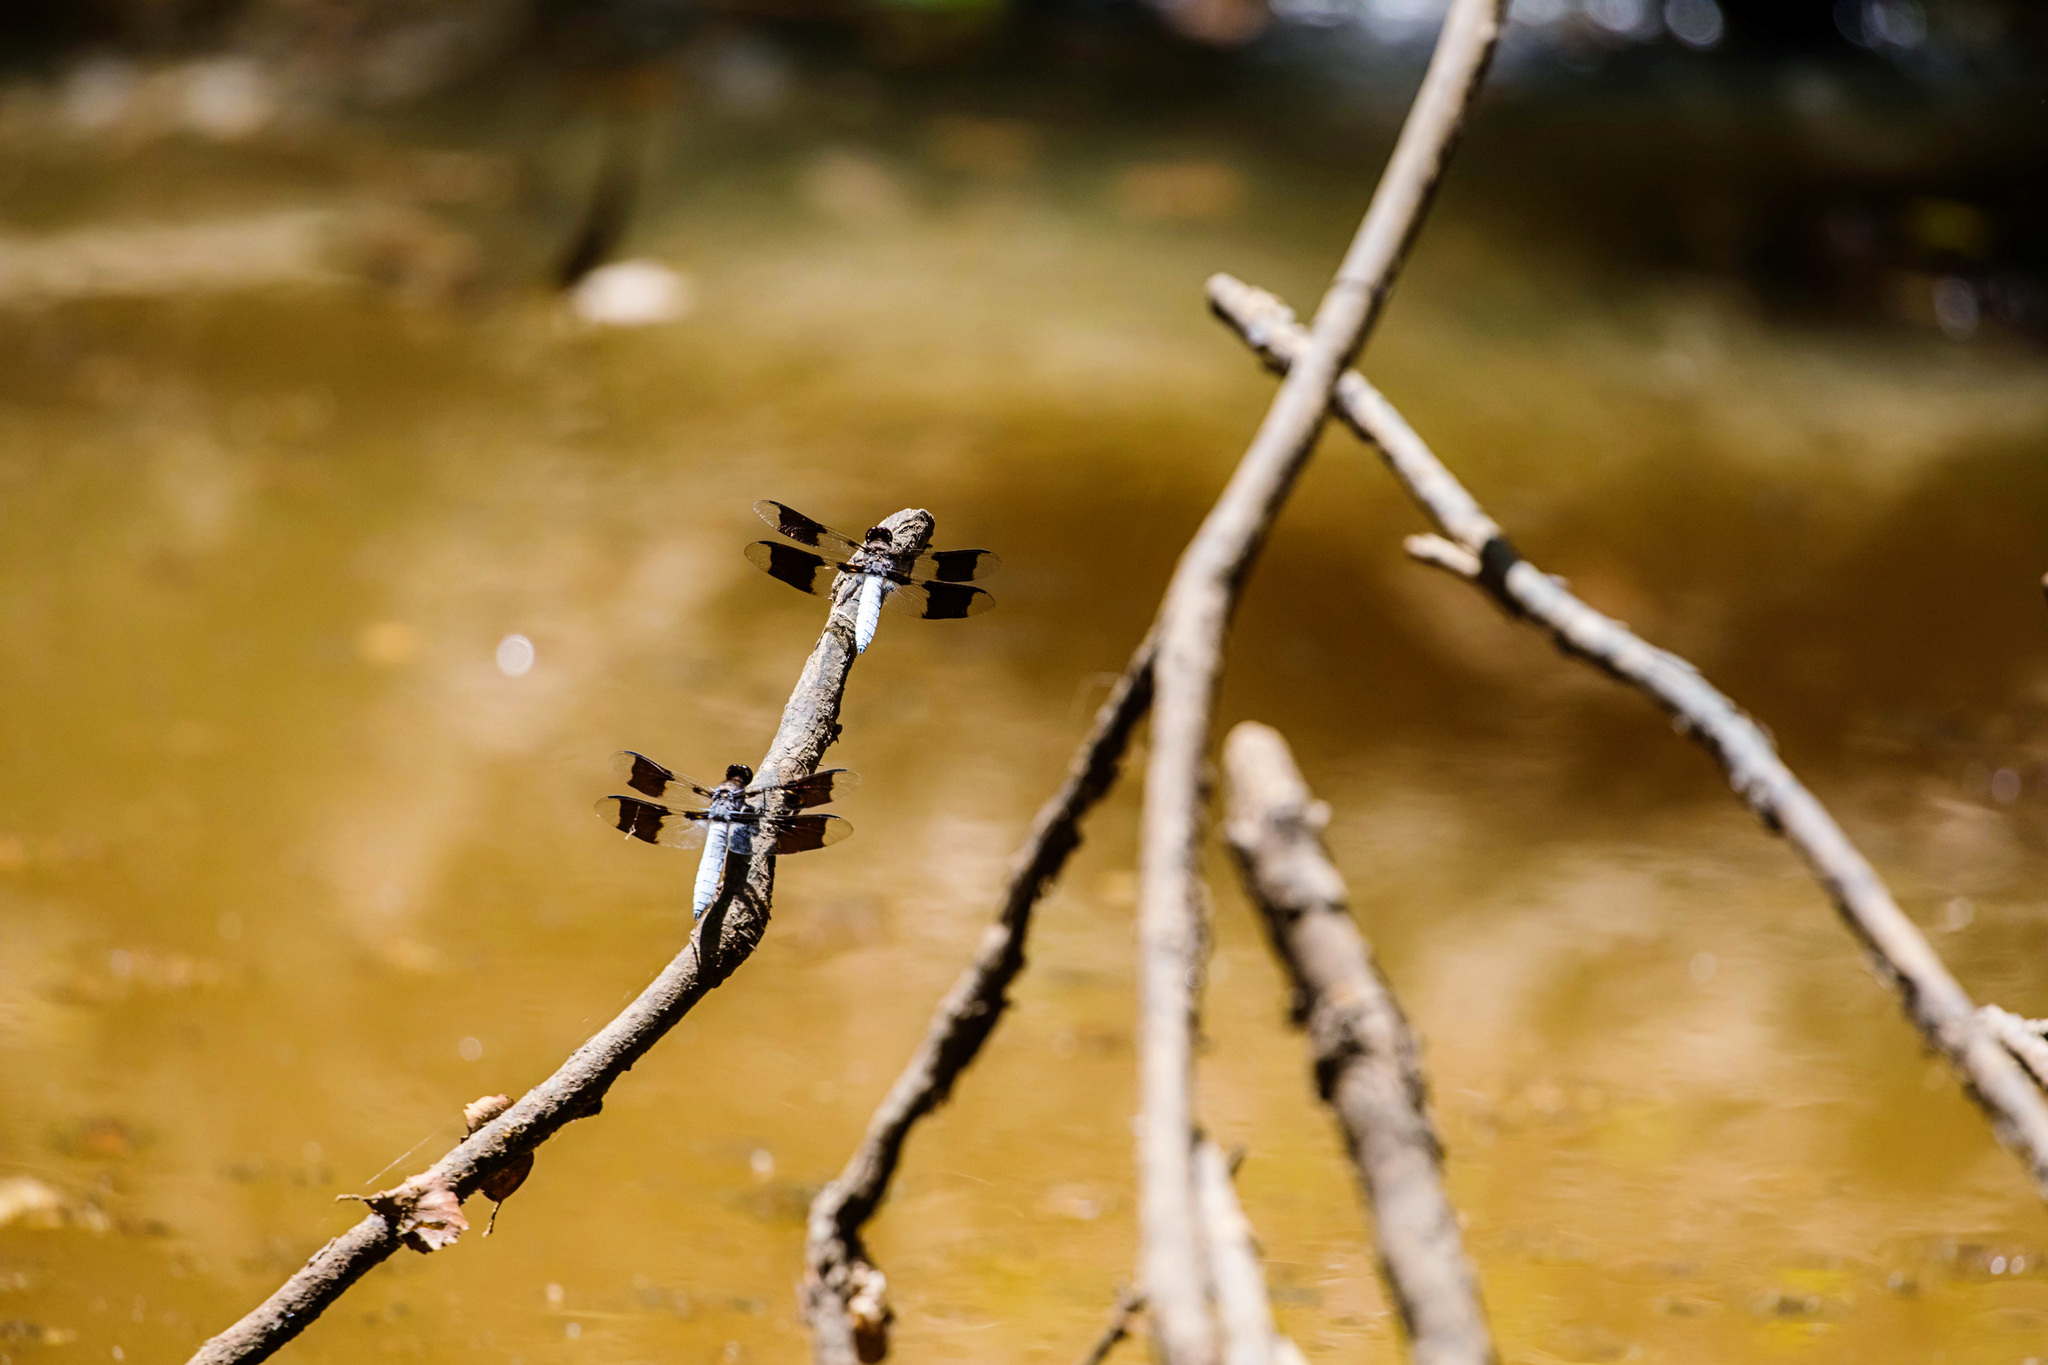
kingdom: Animalia
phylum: Arthropoda
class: Insecta
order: Odonata
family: Libellulidae
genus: Plathemis
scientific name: Plathemis lydia
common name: Common whitetail
